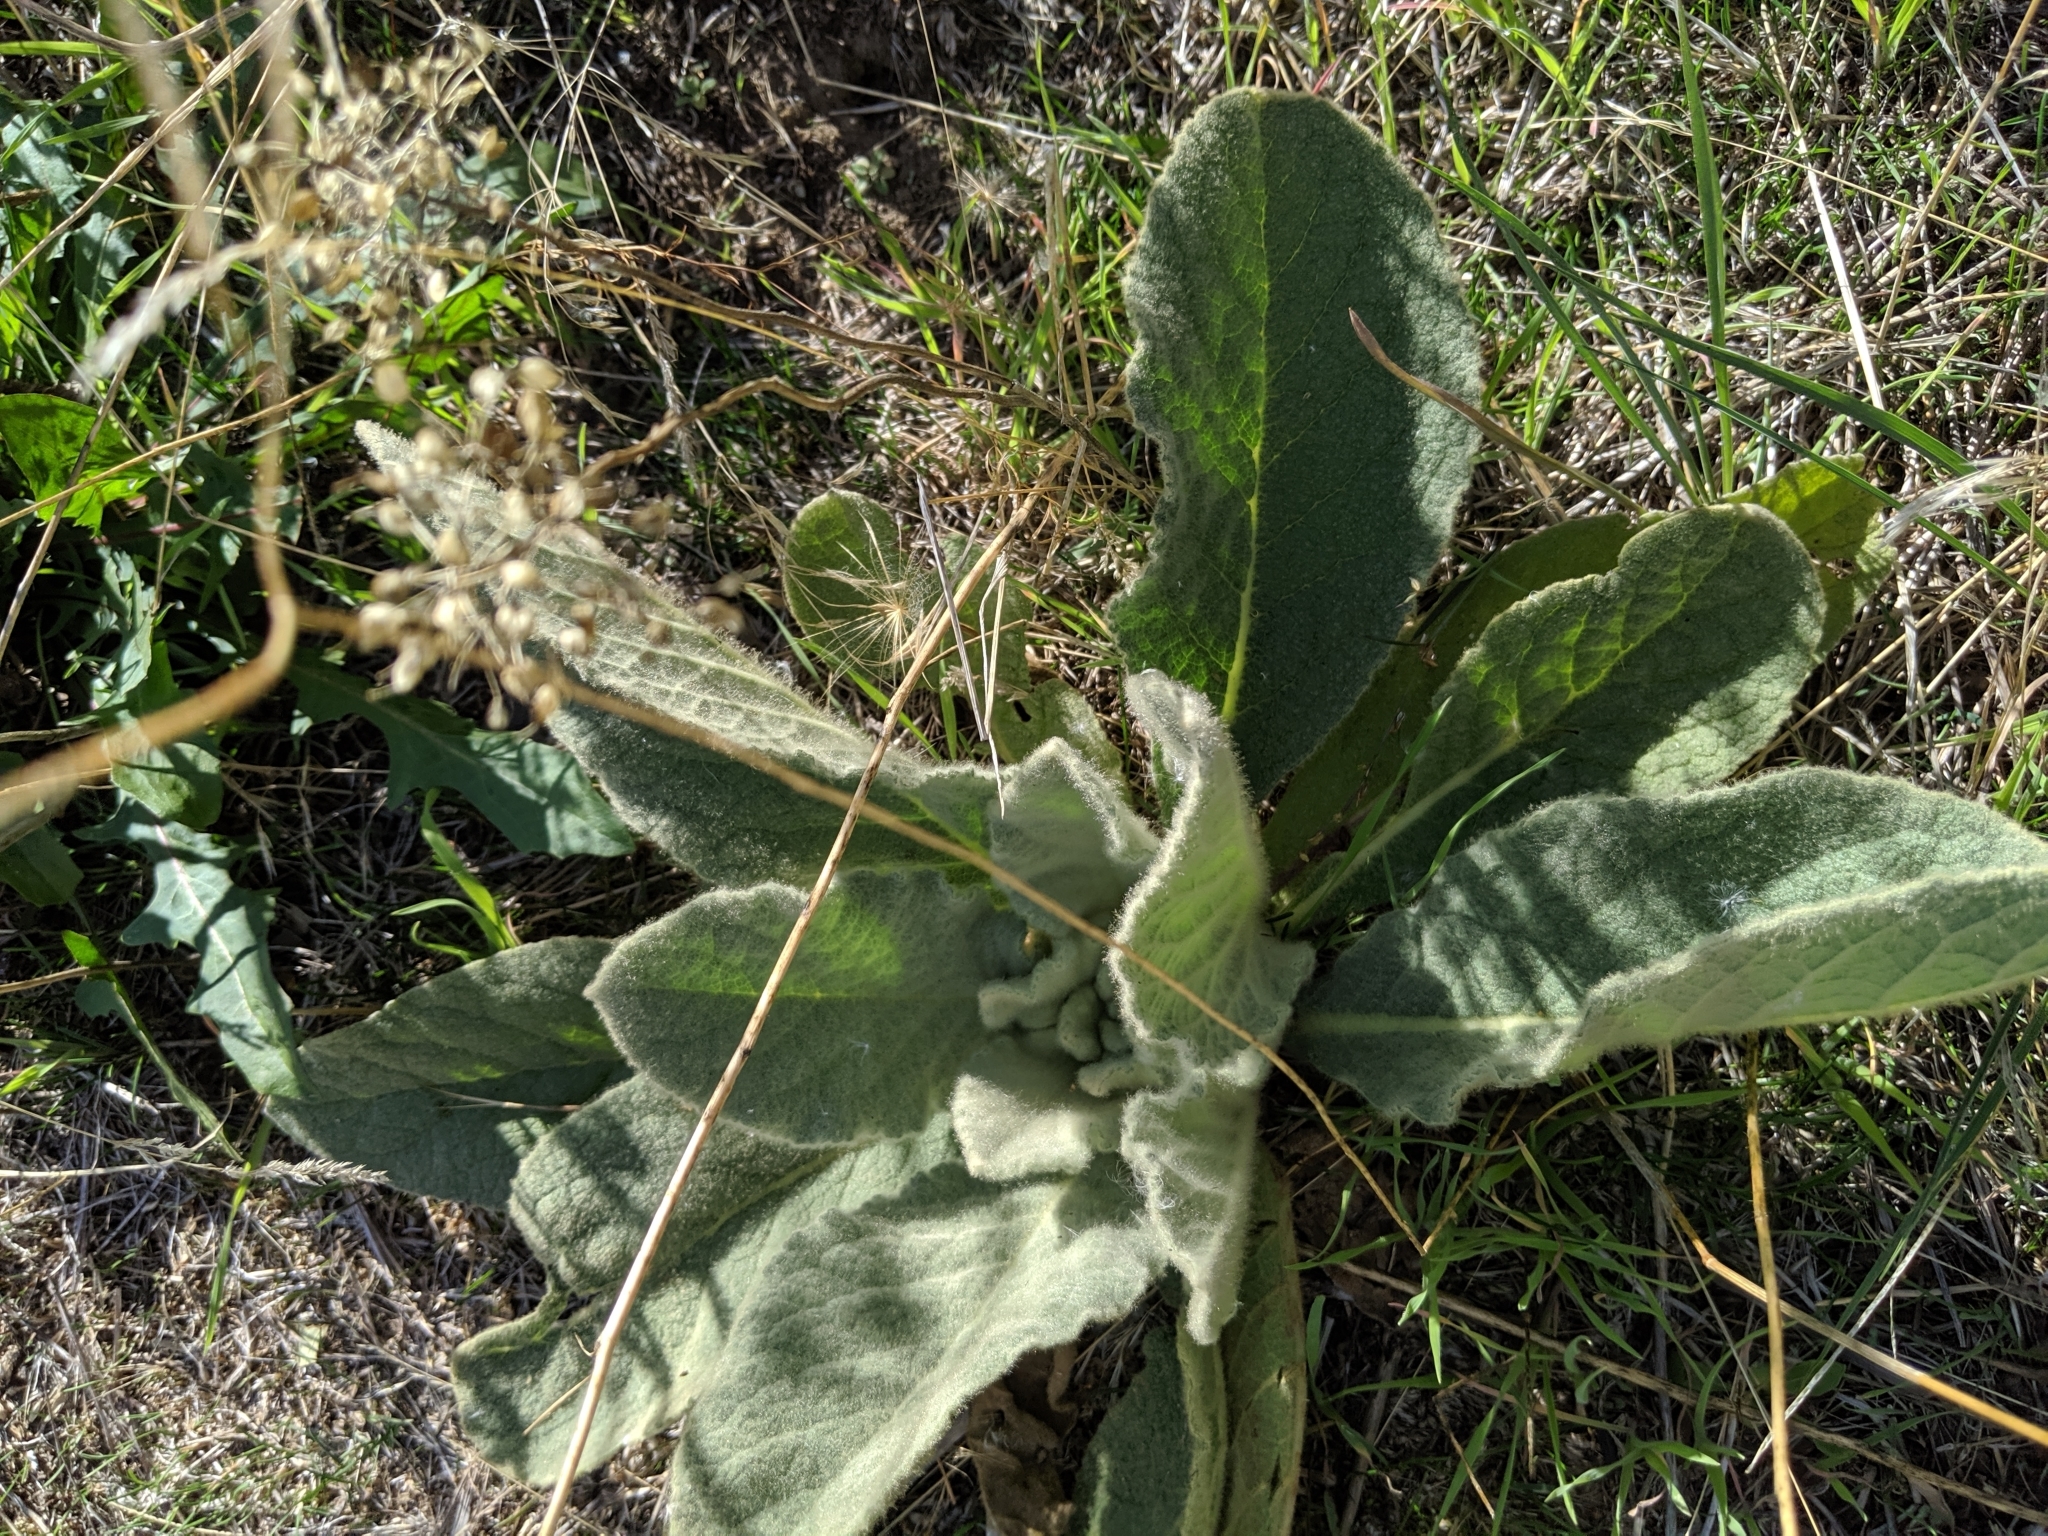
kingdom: Plantae
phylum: Tracheophyta
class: Magnoliopsida
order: Lamiales
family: Scrophulariaceae
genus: Verbascum
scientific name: Verbascum thapsus
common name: Common mullein
